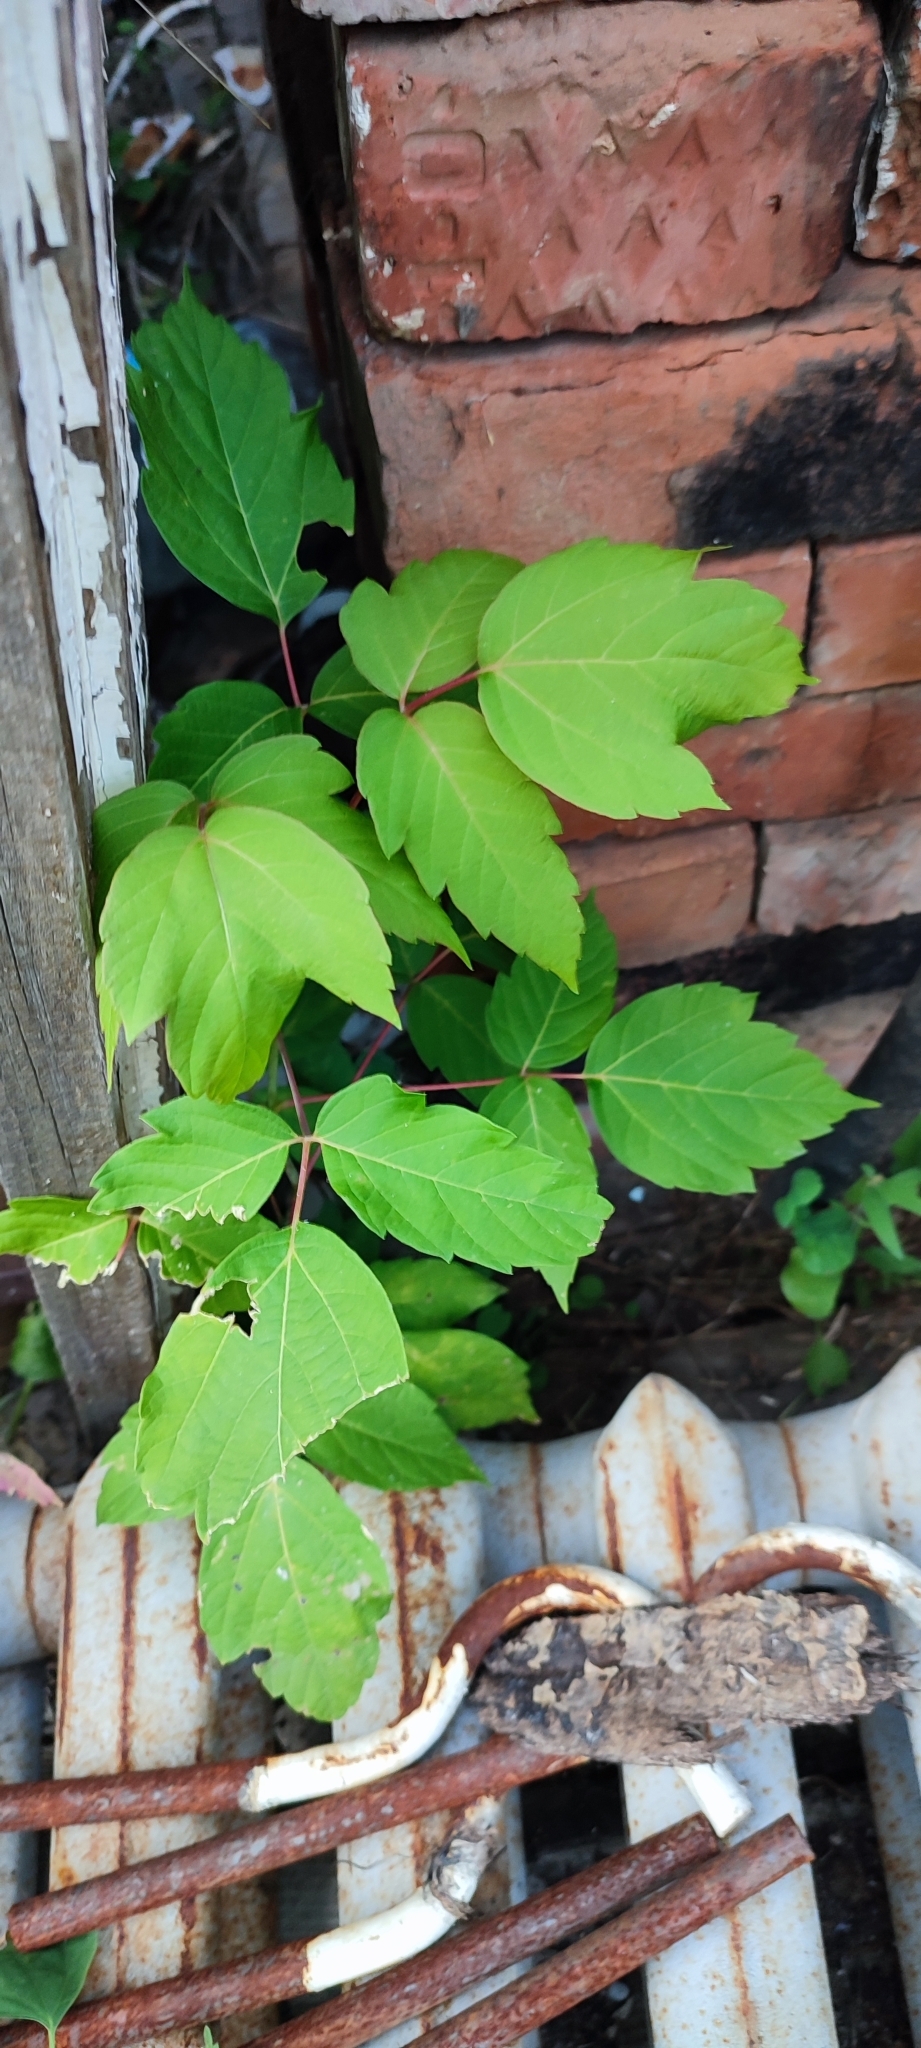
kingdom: Plantae
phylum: Tracheophyta
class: Magnoliopsida
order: Sapindales
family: Sapindaceae
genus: Acer
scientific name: Acer negundo
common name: Ashleaf maple
